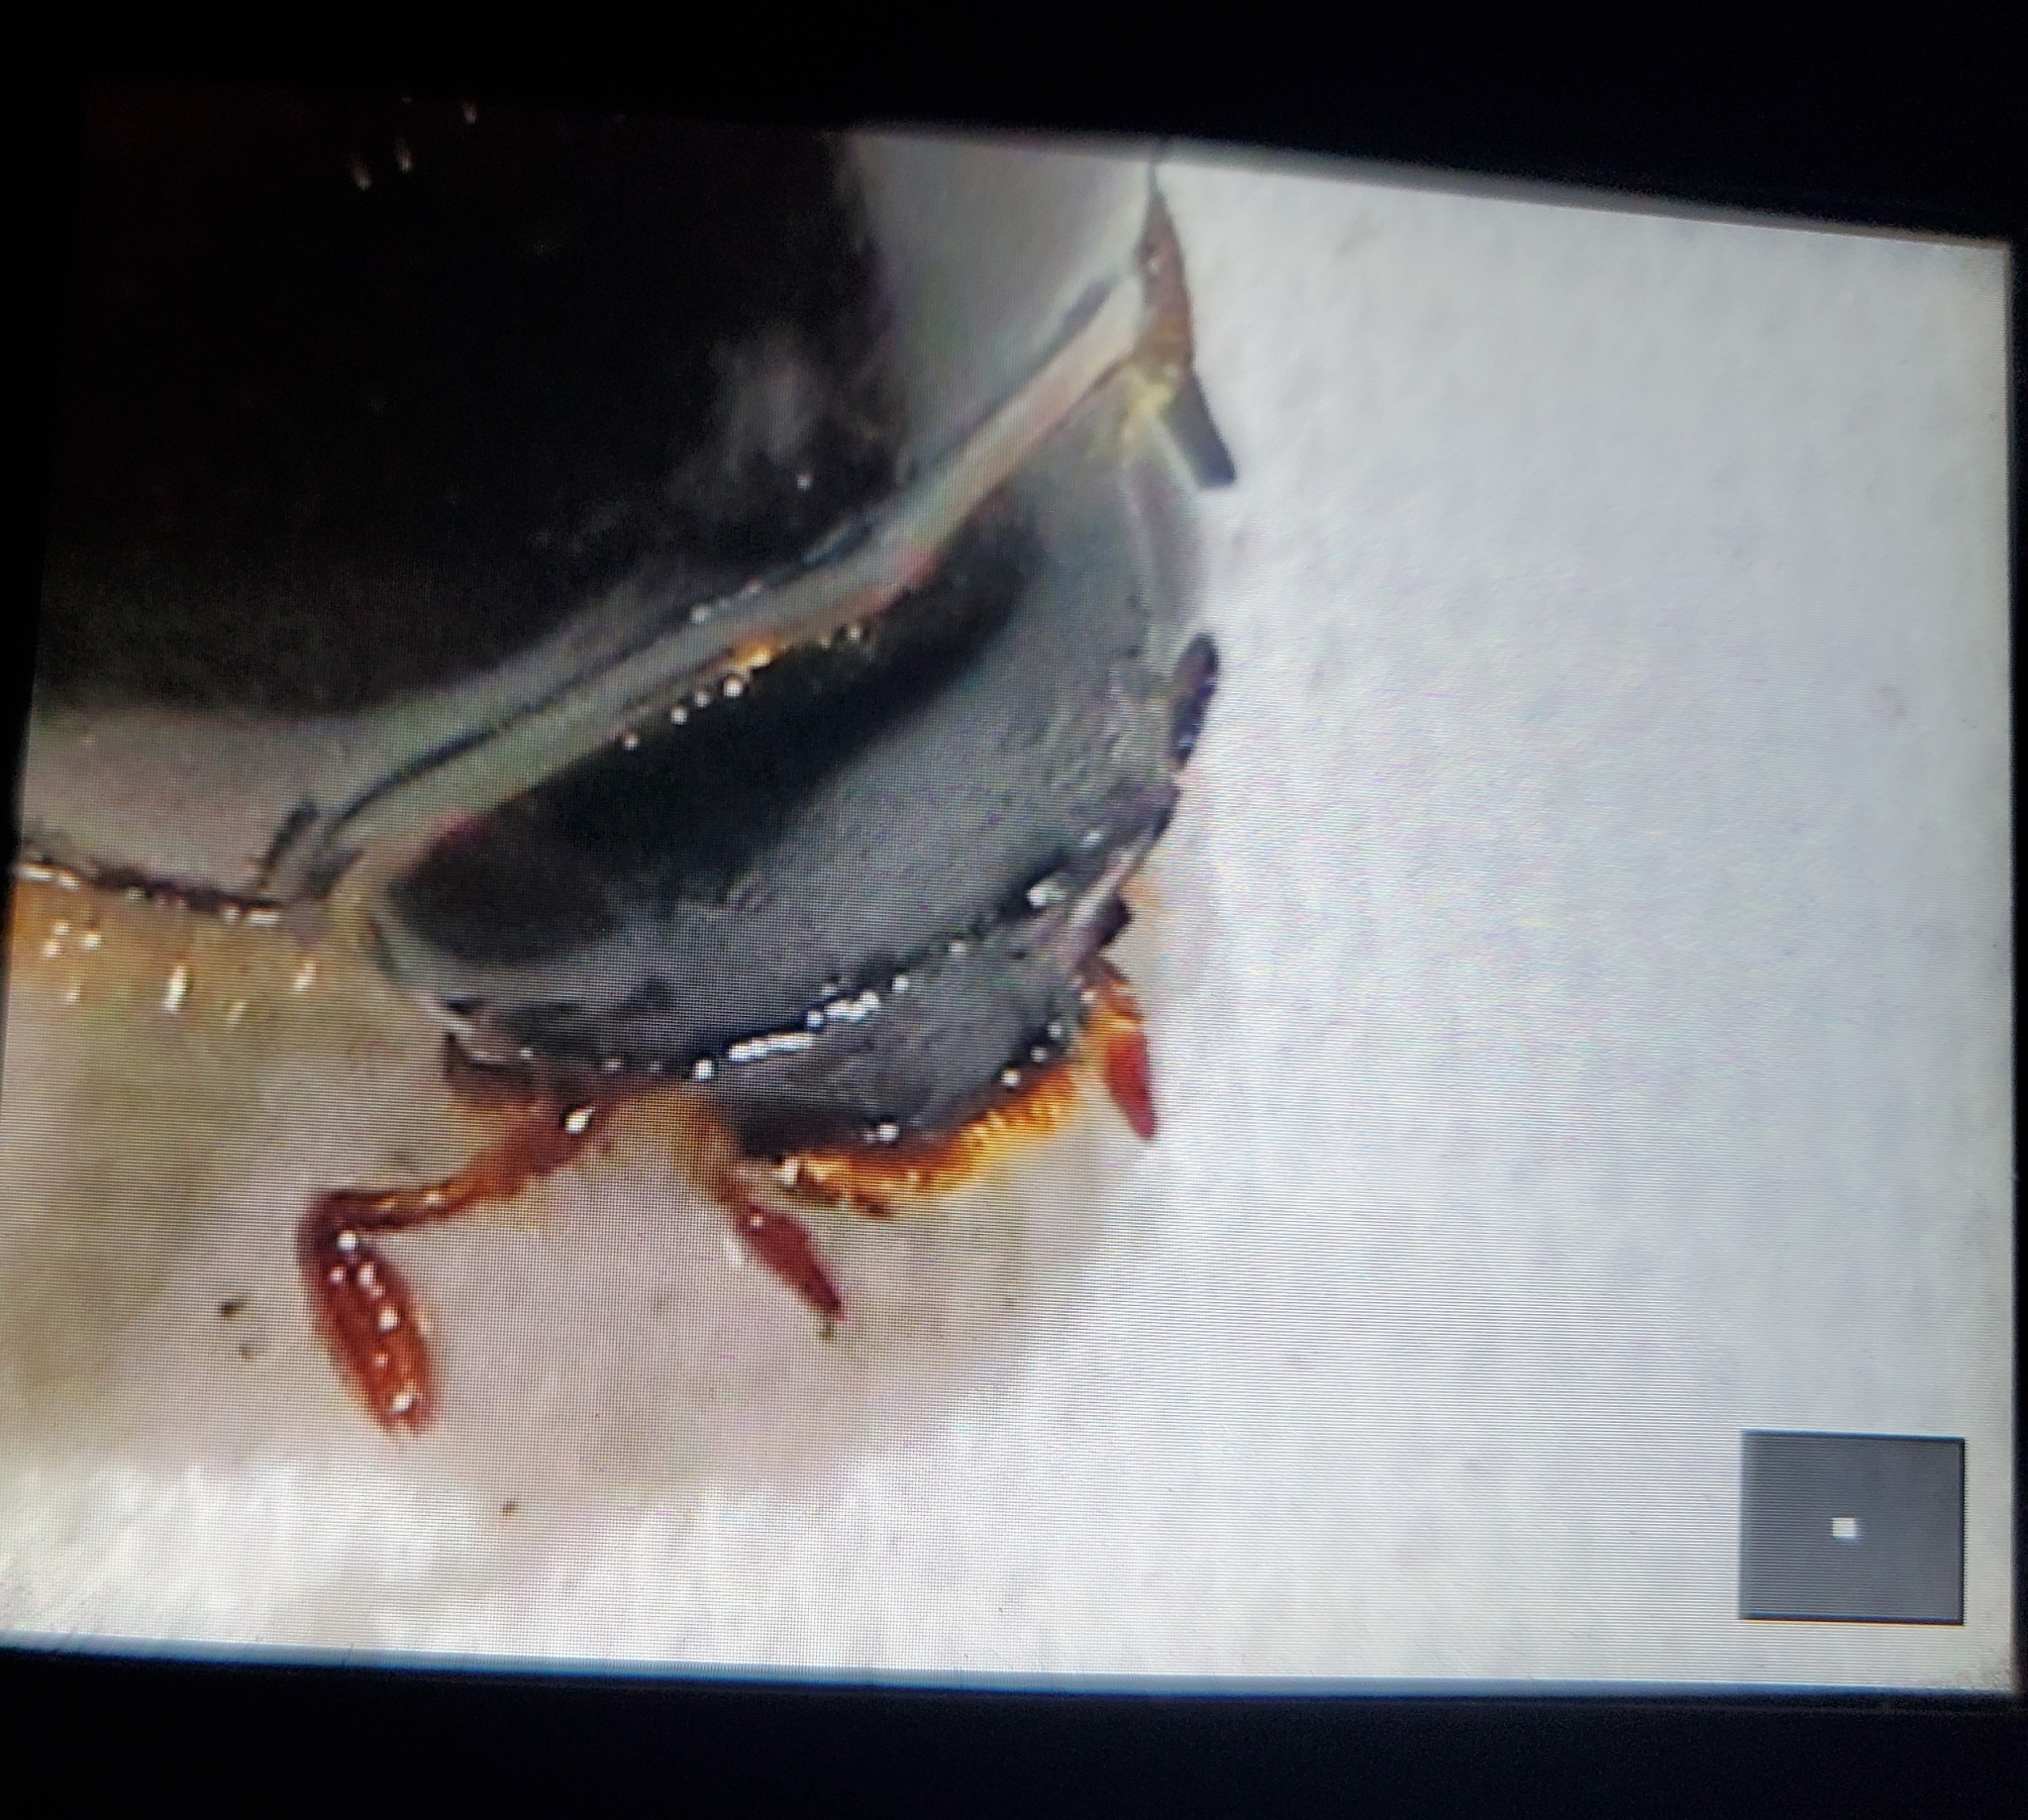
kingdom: Animalia
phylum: Arthropoda
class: Insecta
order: Coleoptera
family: Scarabaeidae
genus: Ligyrus
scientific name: Ligyrus cuniculus
